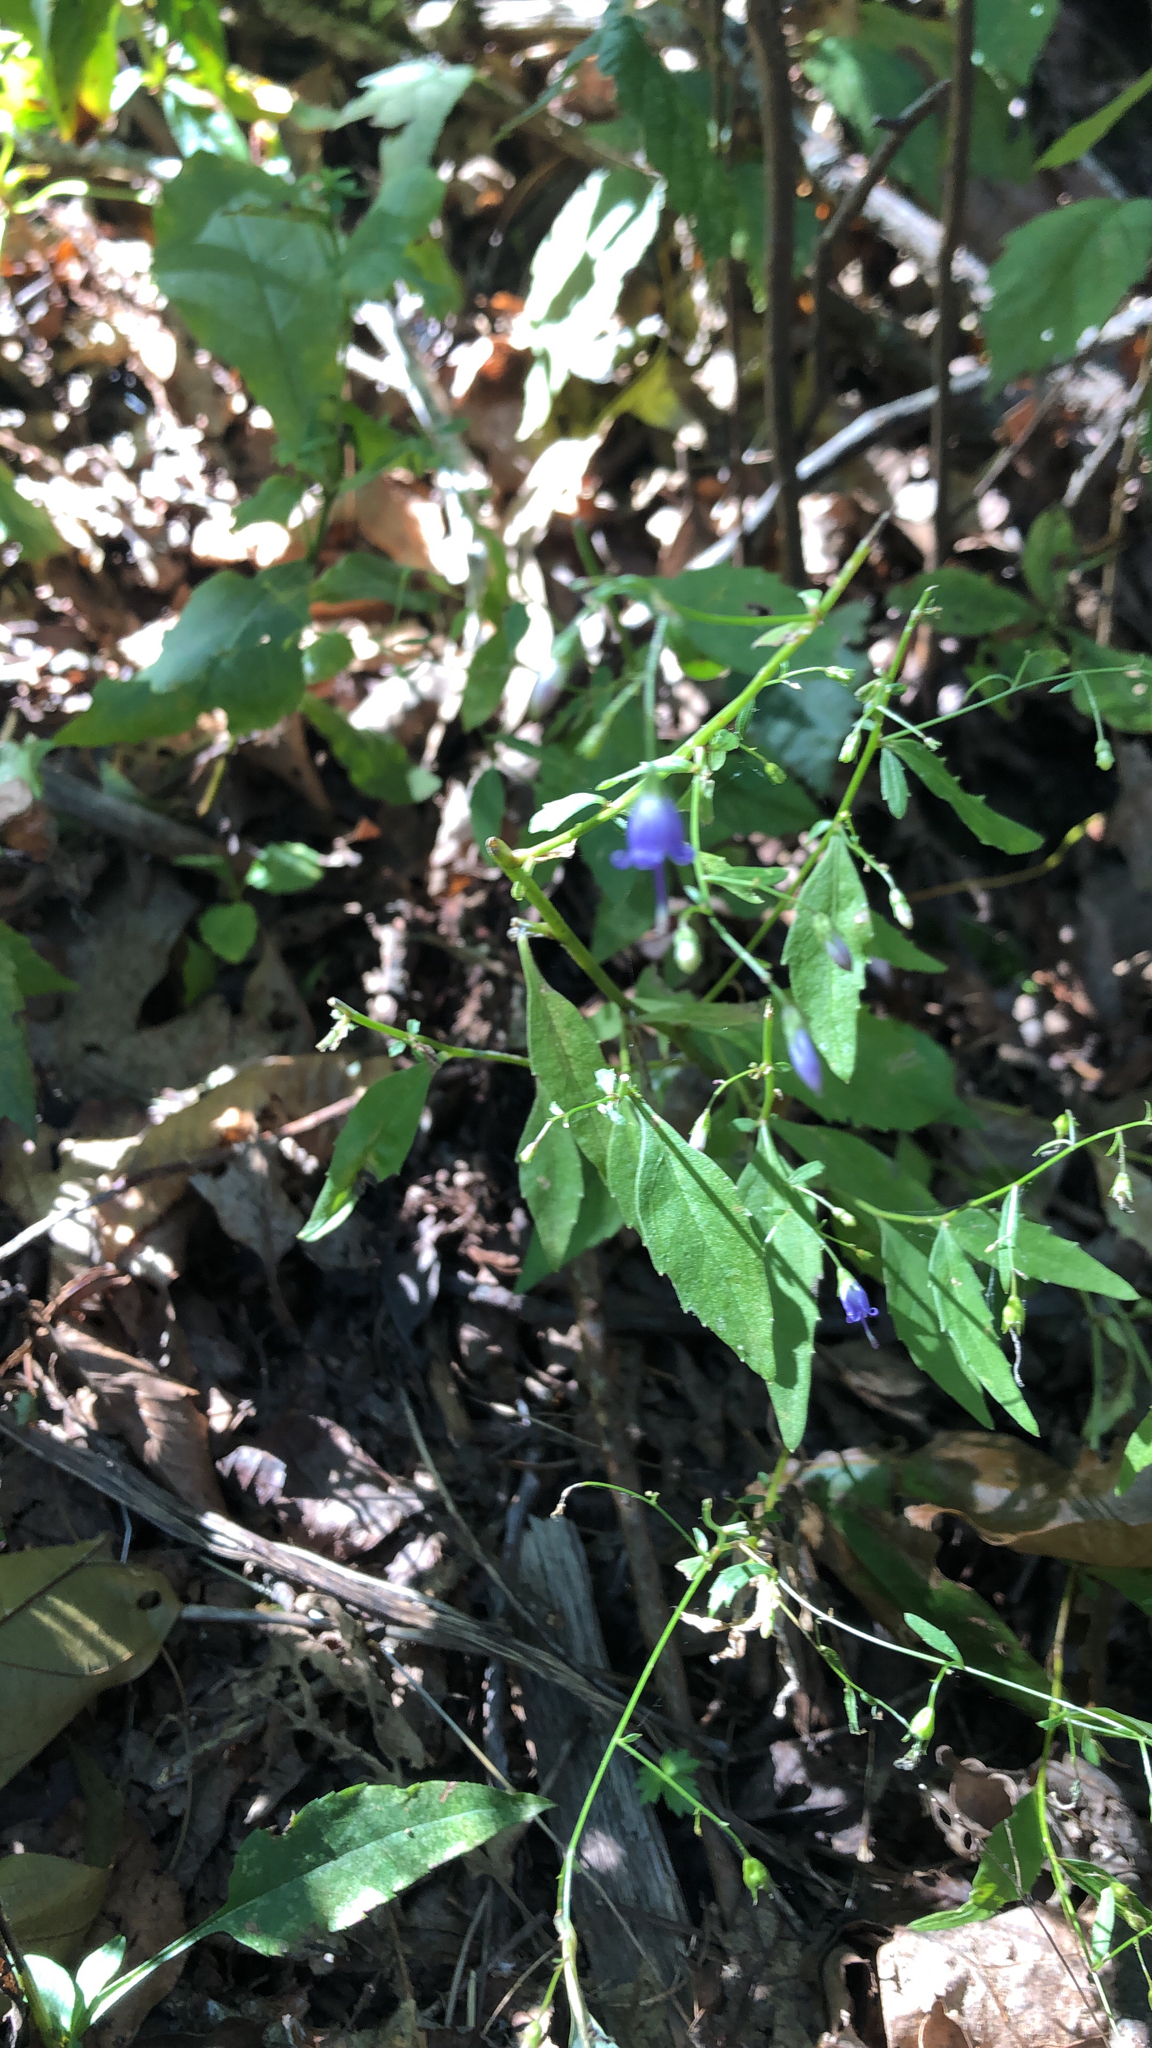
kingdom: Plantae
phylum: Tracheophyta
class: Magnoliopsida
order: Asterales
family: Campanulaceae
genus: Campanula
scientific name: Campanula divaricata
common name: Appalachian bellflower
